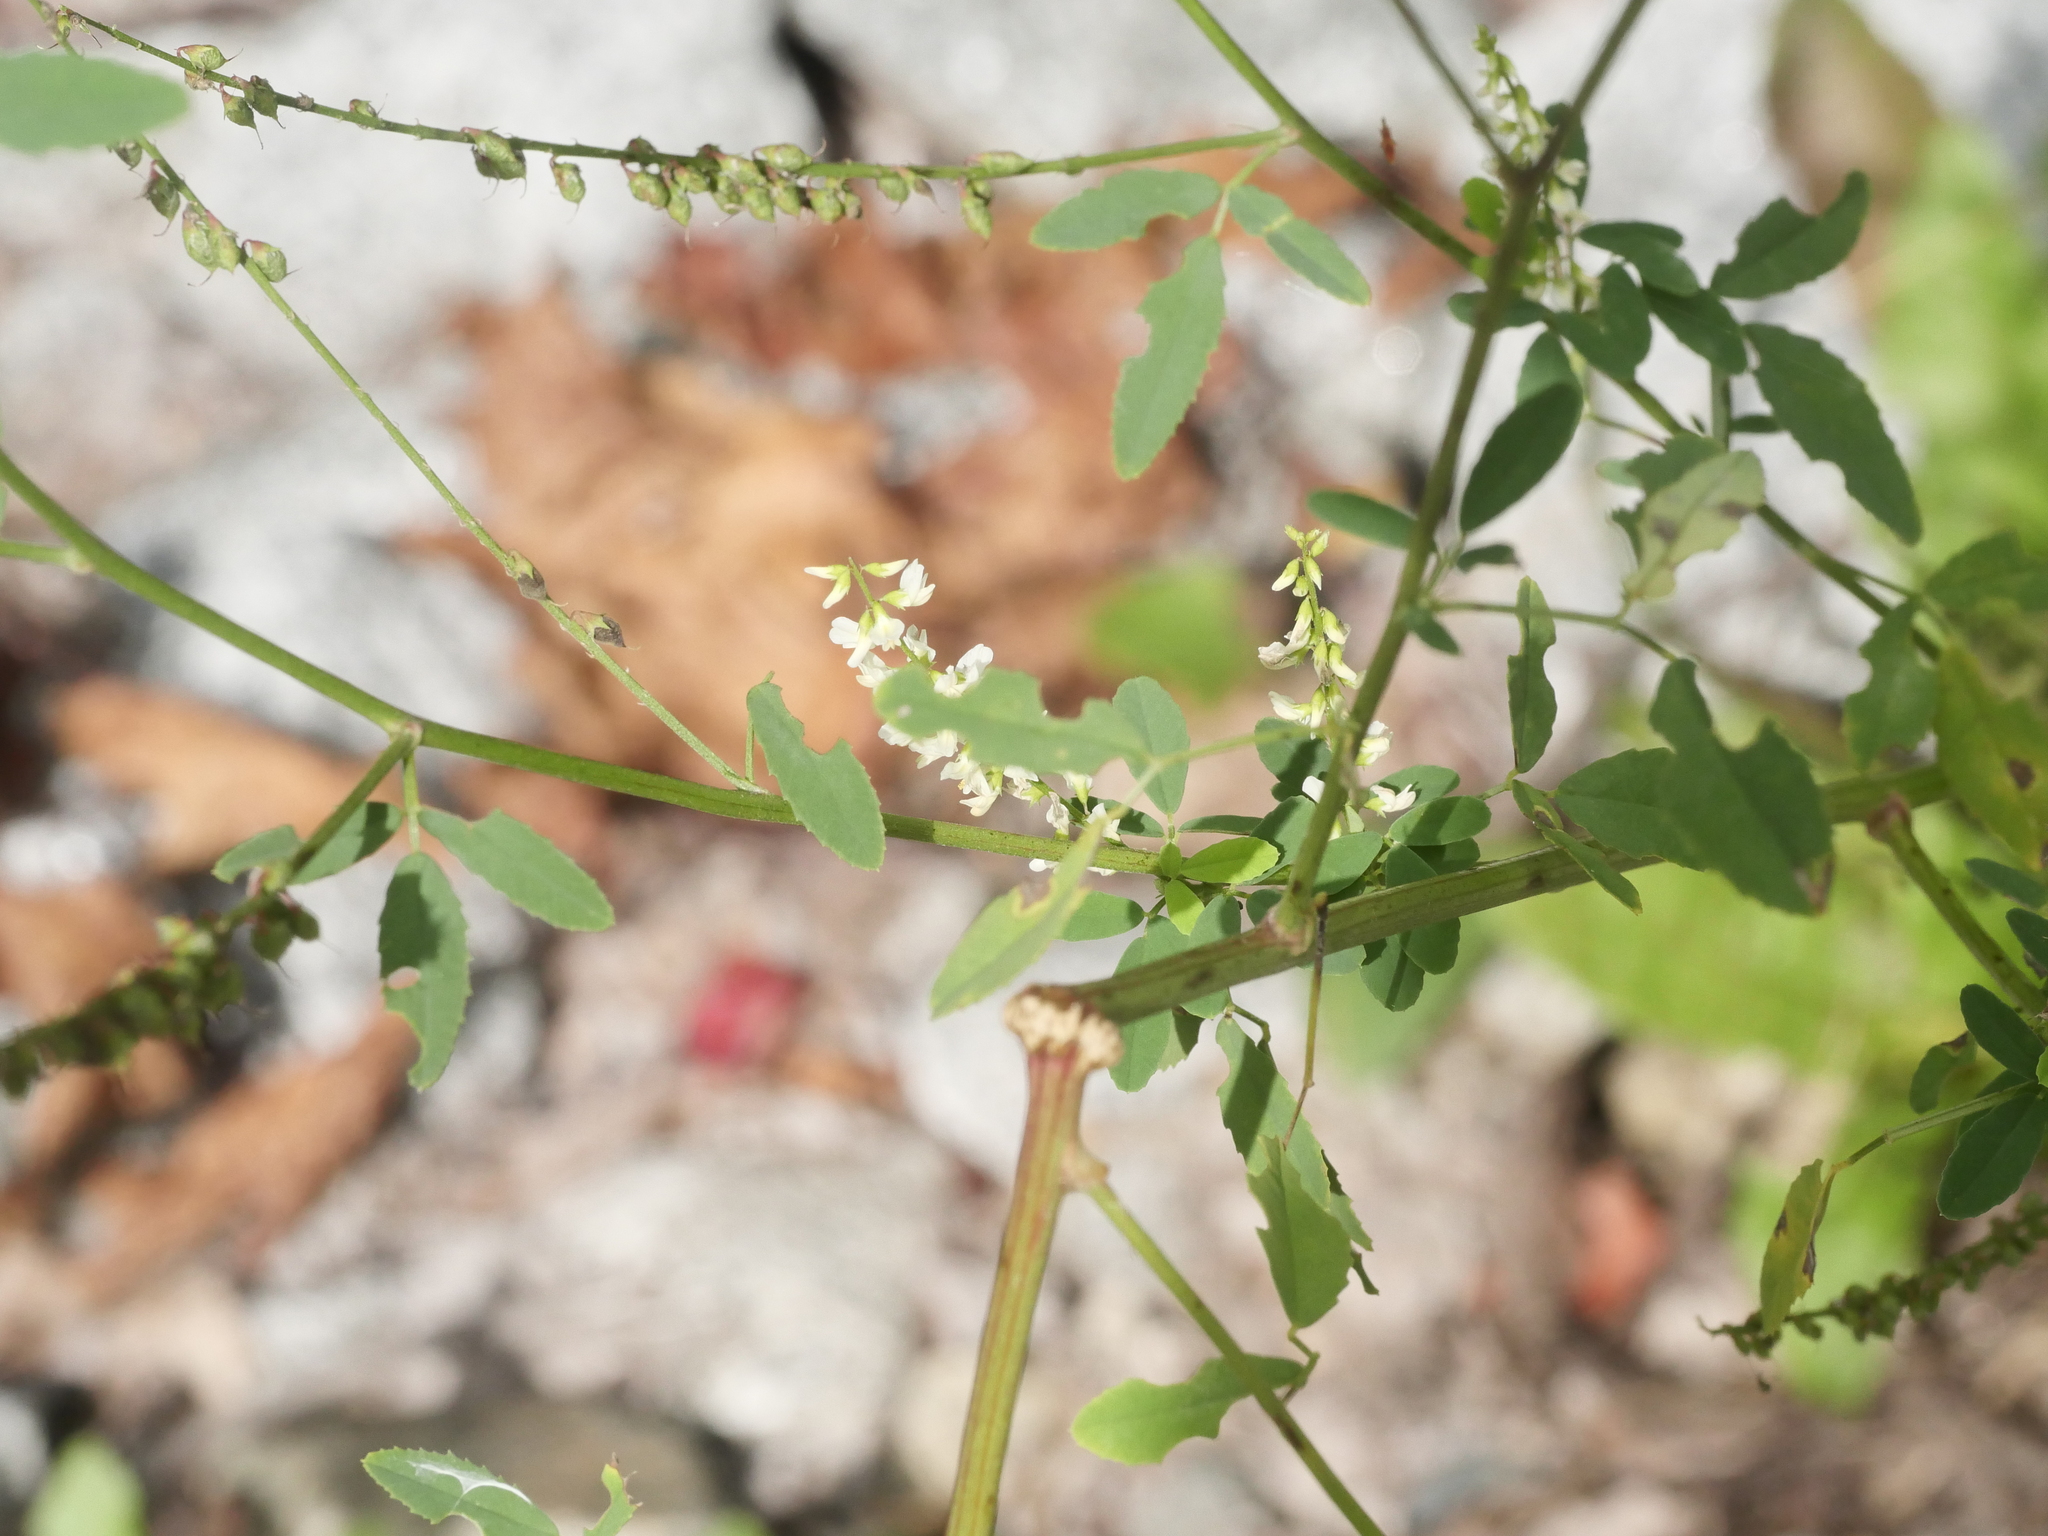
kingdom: Plantae
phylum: Tracheophyta
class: Magnoliopsida
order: Fabales
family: Fabaceae
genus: Melilotus
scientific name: Melilotus albus
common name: White melilot
